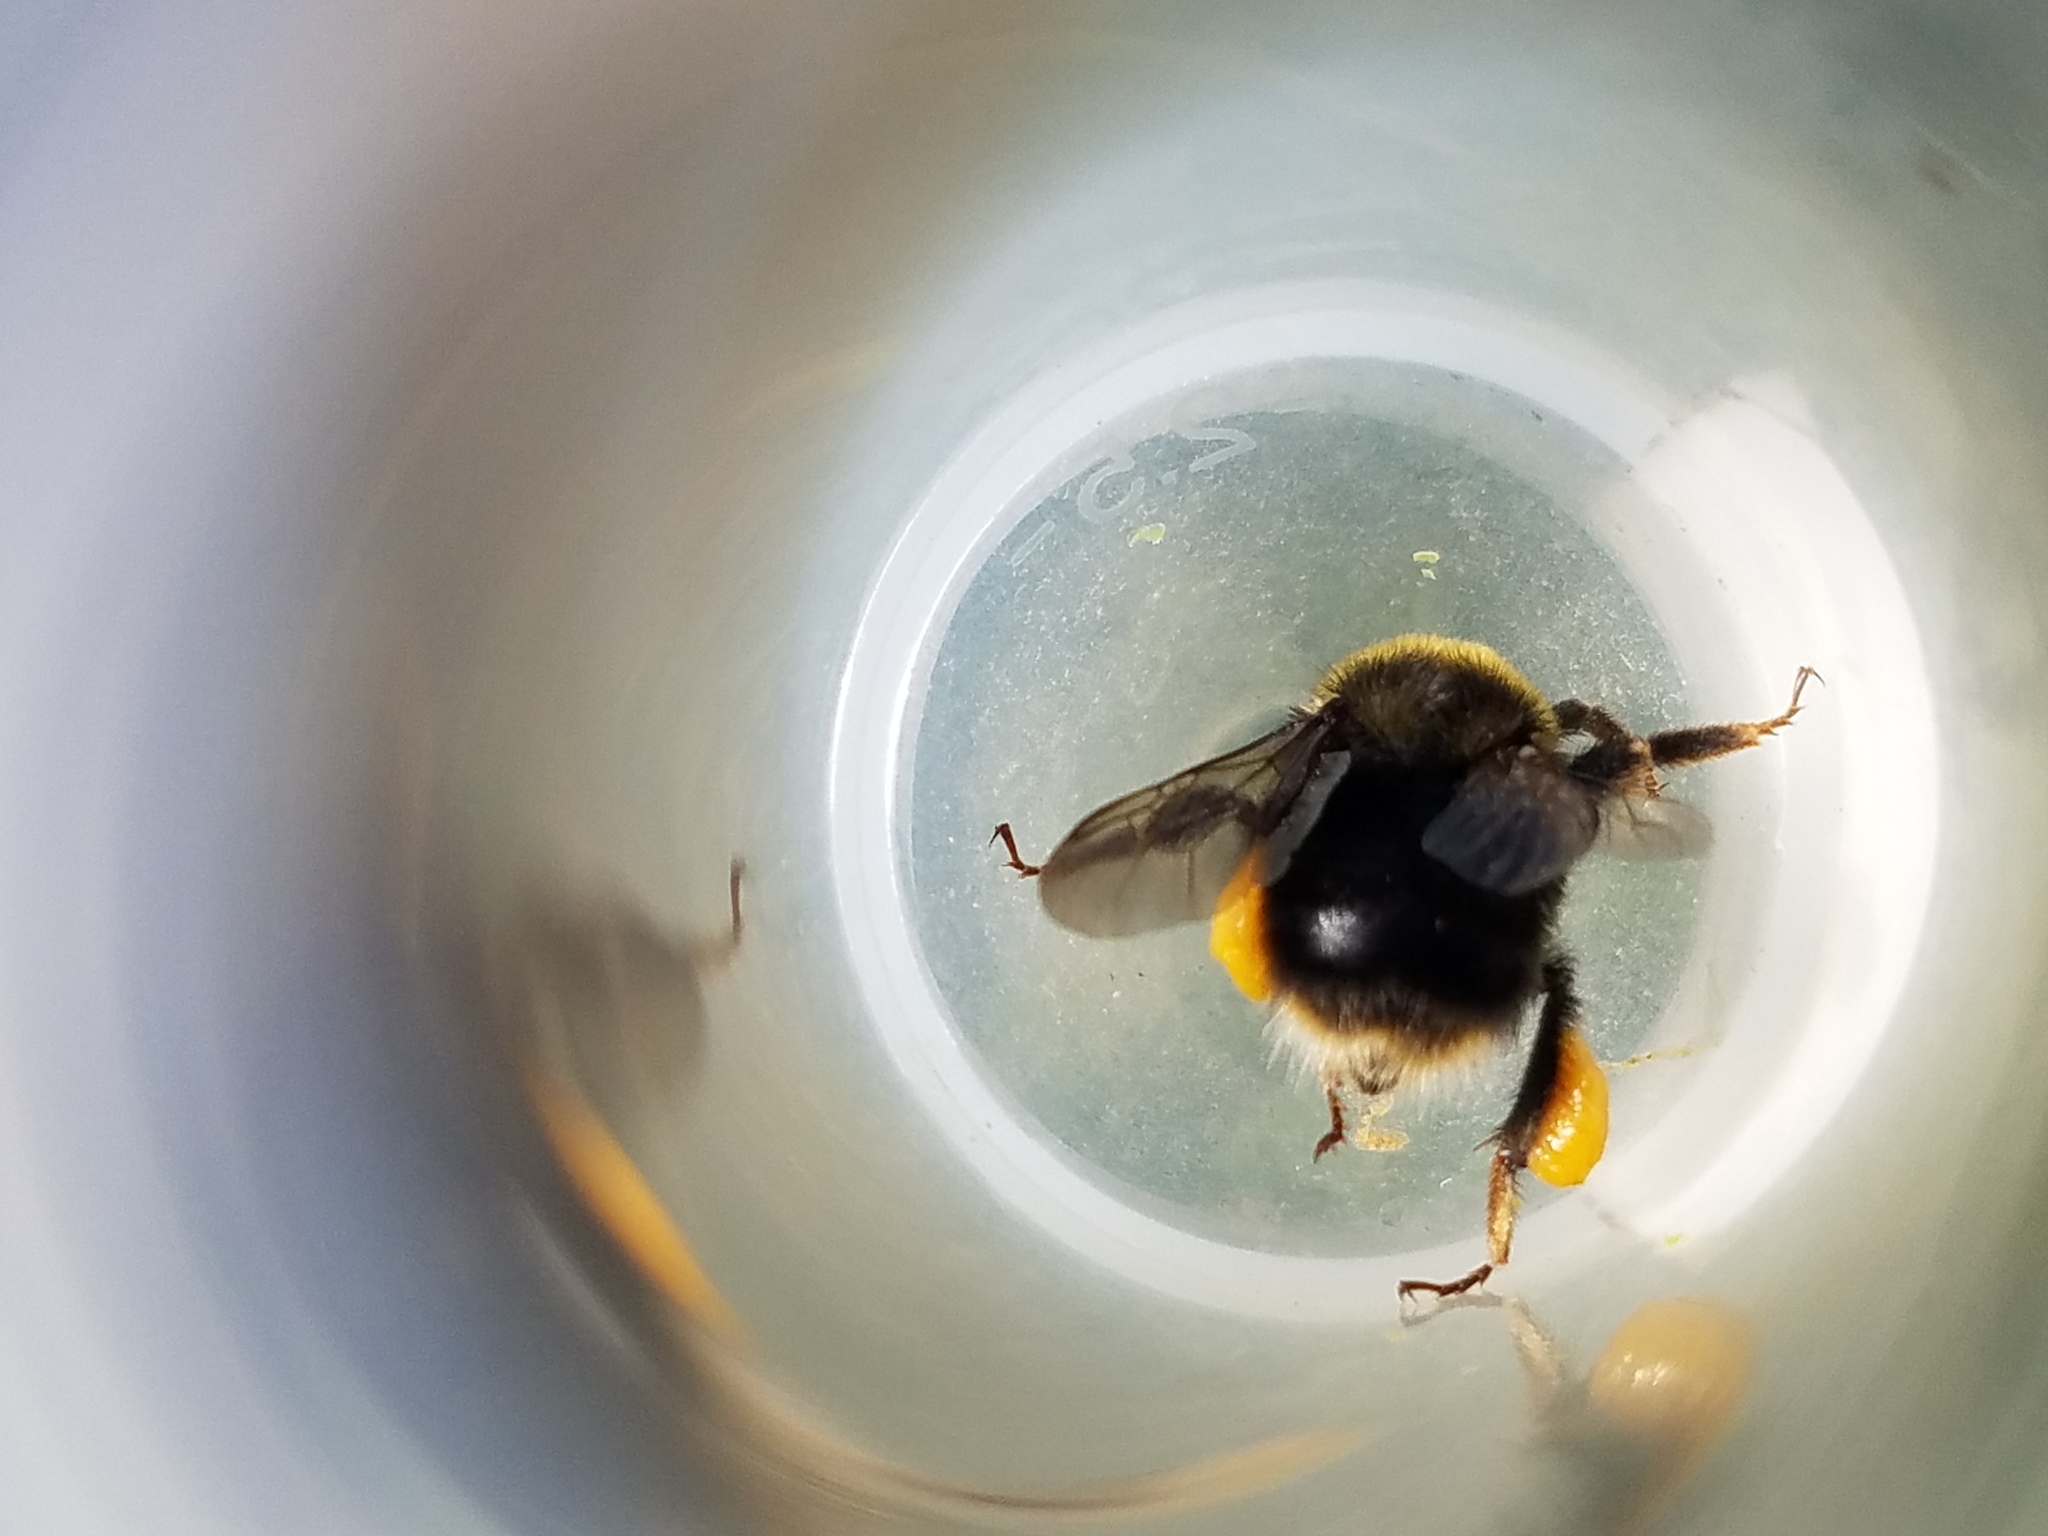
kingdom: Animalia
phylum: Arthropoda
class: Insecta
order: Hymenoptera
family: Apidae
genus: Bombus
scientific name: Bombus occidentalis
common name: Western bumble bee
